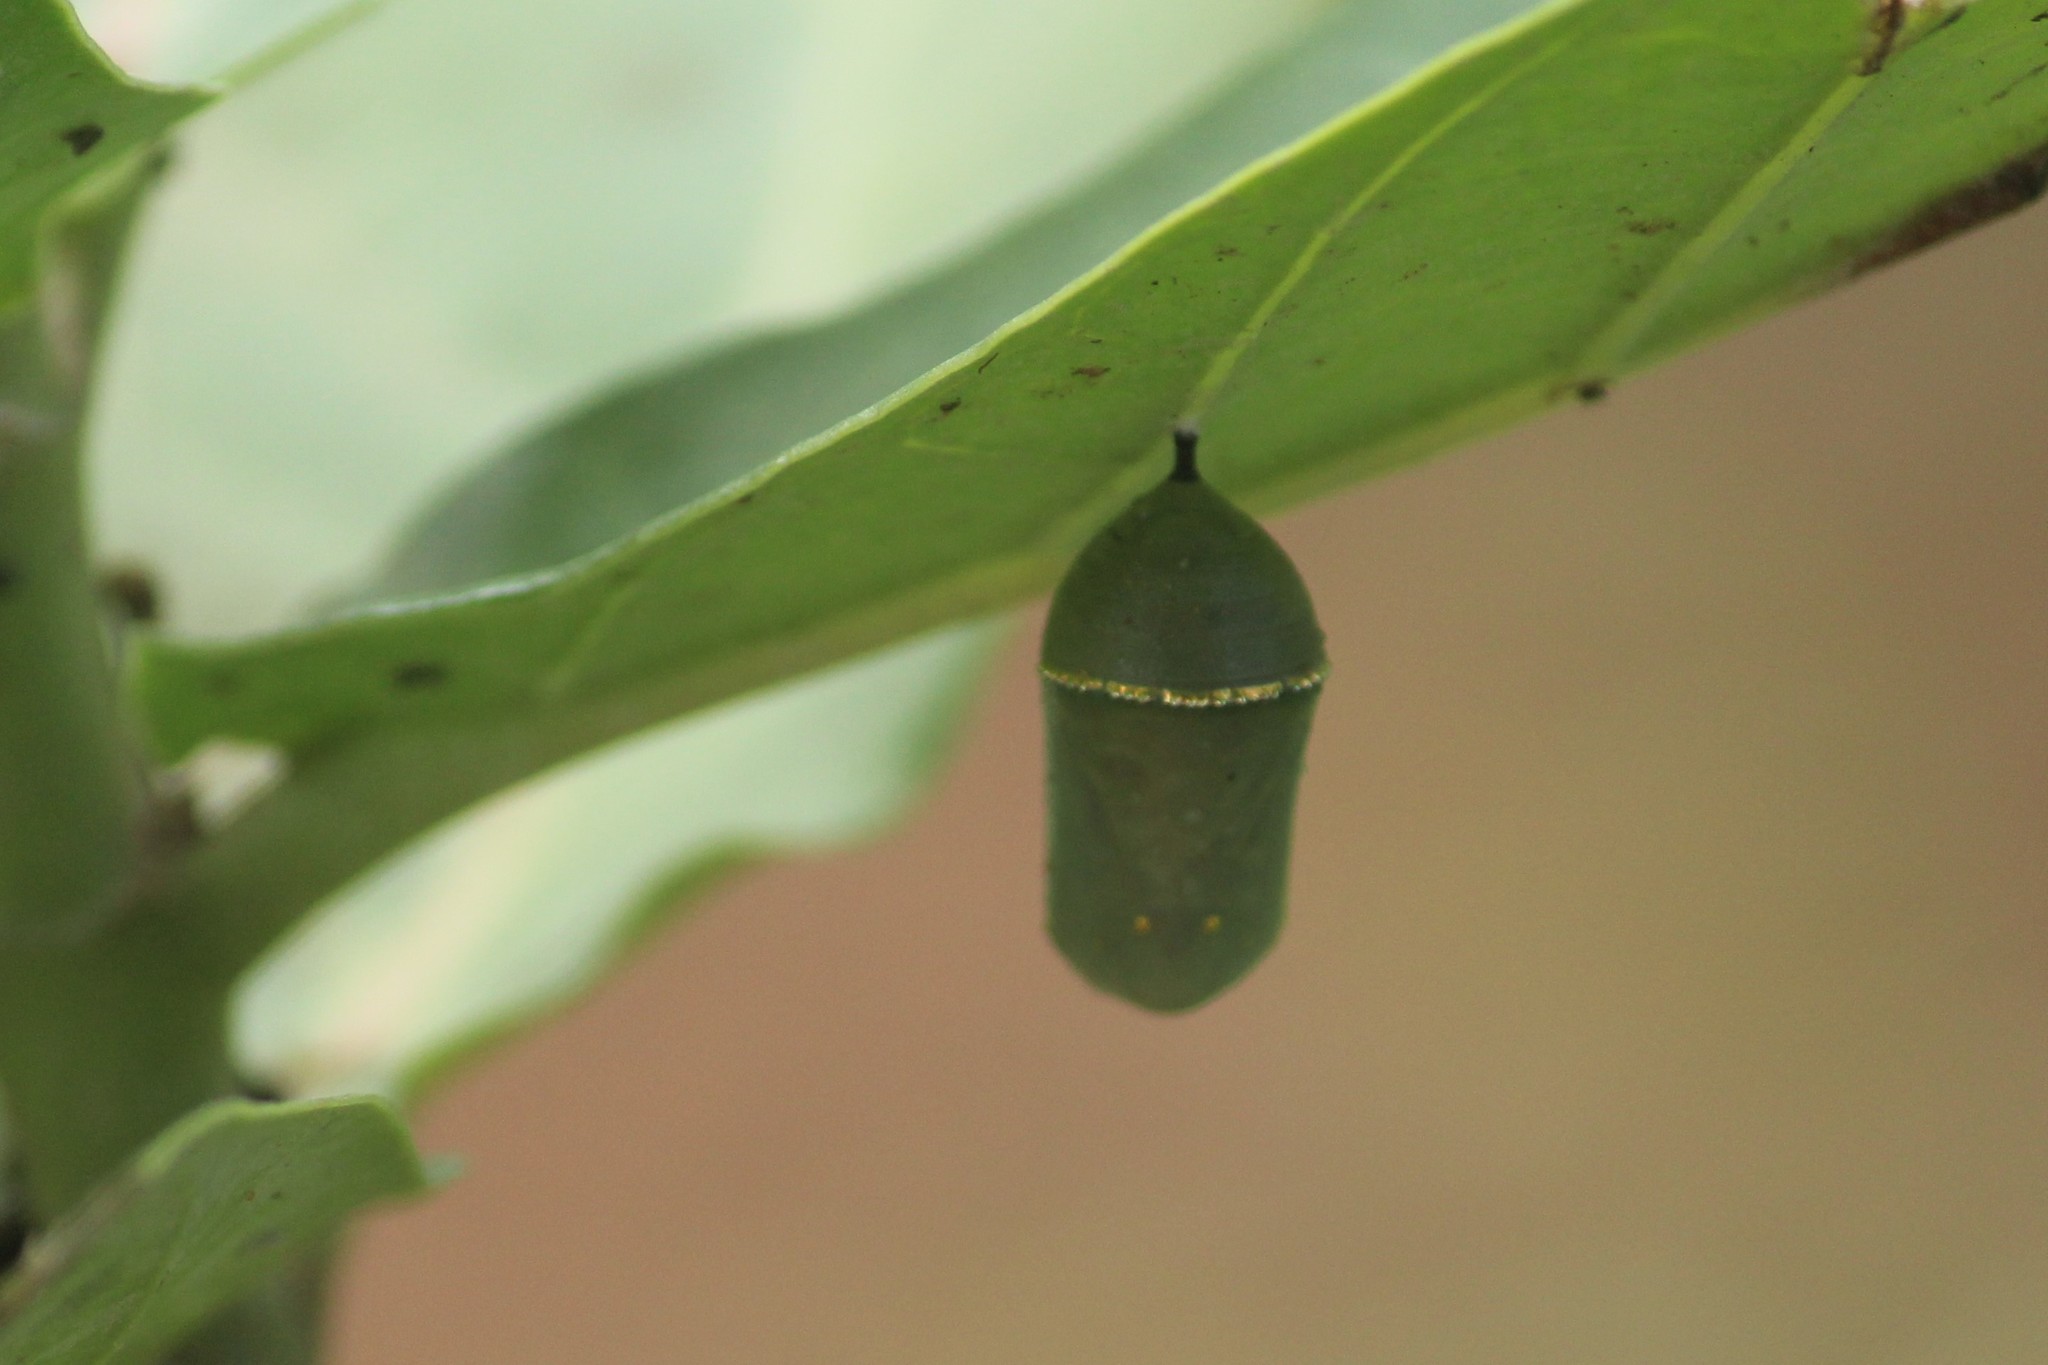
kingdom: Animalia
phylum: Arthropoda
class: Insecta
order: Lepidoptera
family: Nymphalidae
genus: Danaus
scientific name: Danaus chrysippus
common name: Plain tiger
